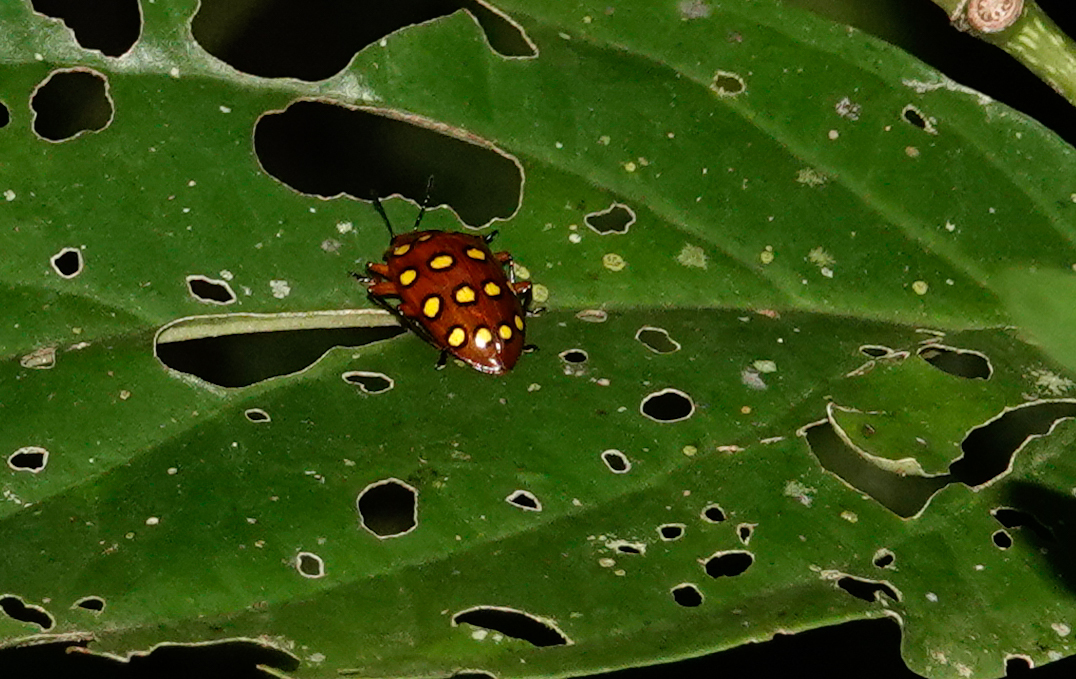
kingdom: Animalia
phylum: Arthropoda
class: Insecta
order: Coleoptera
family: Erotylidae
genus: Iphiclus
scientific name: Iphiclus
